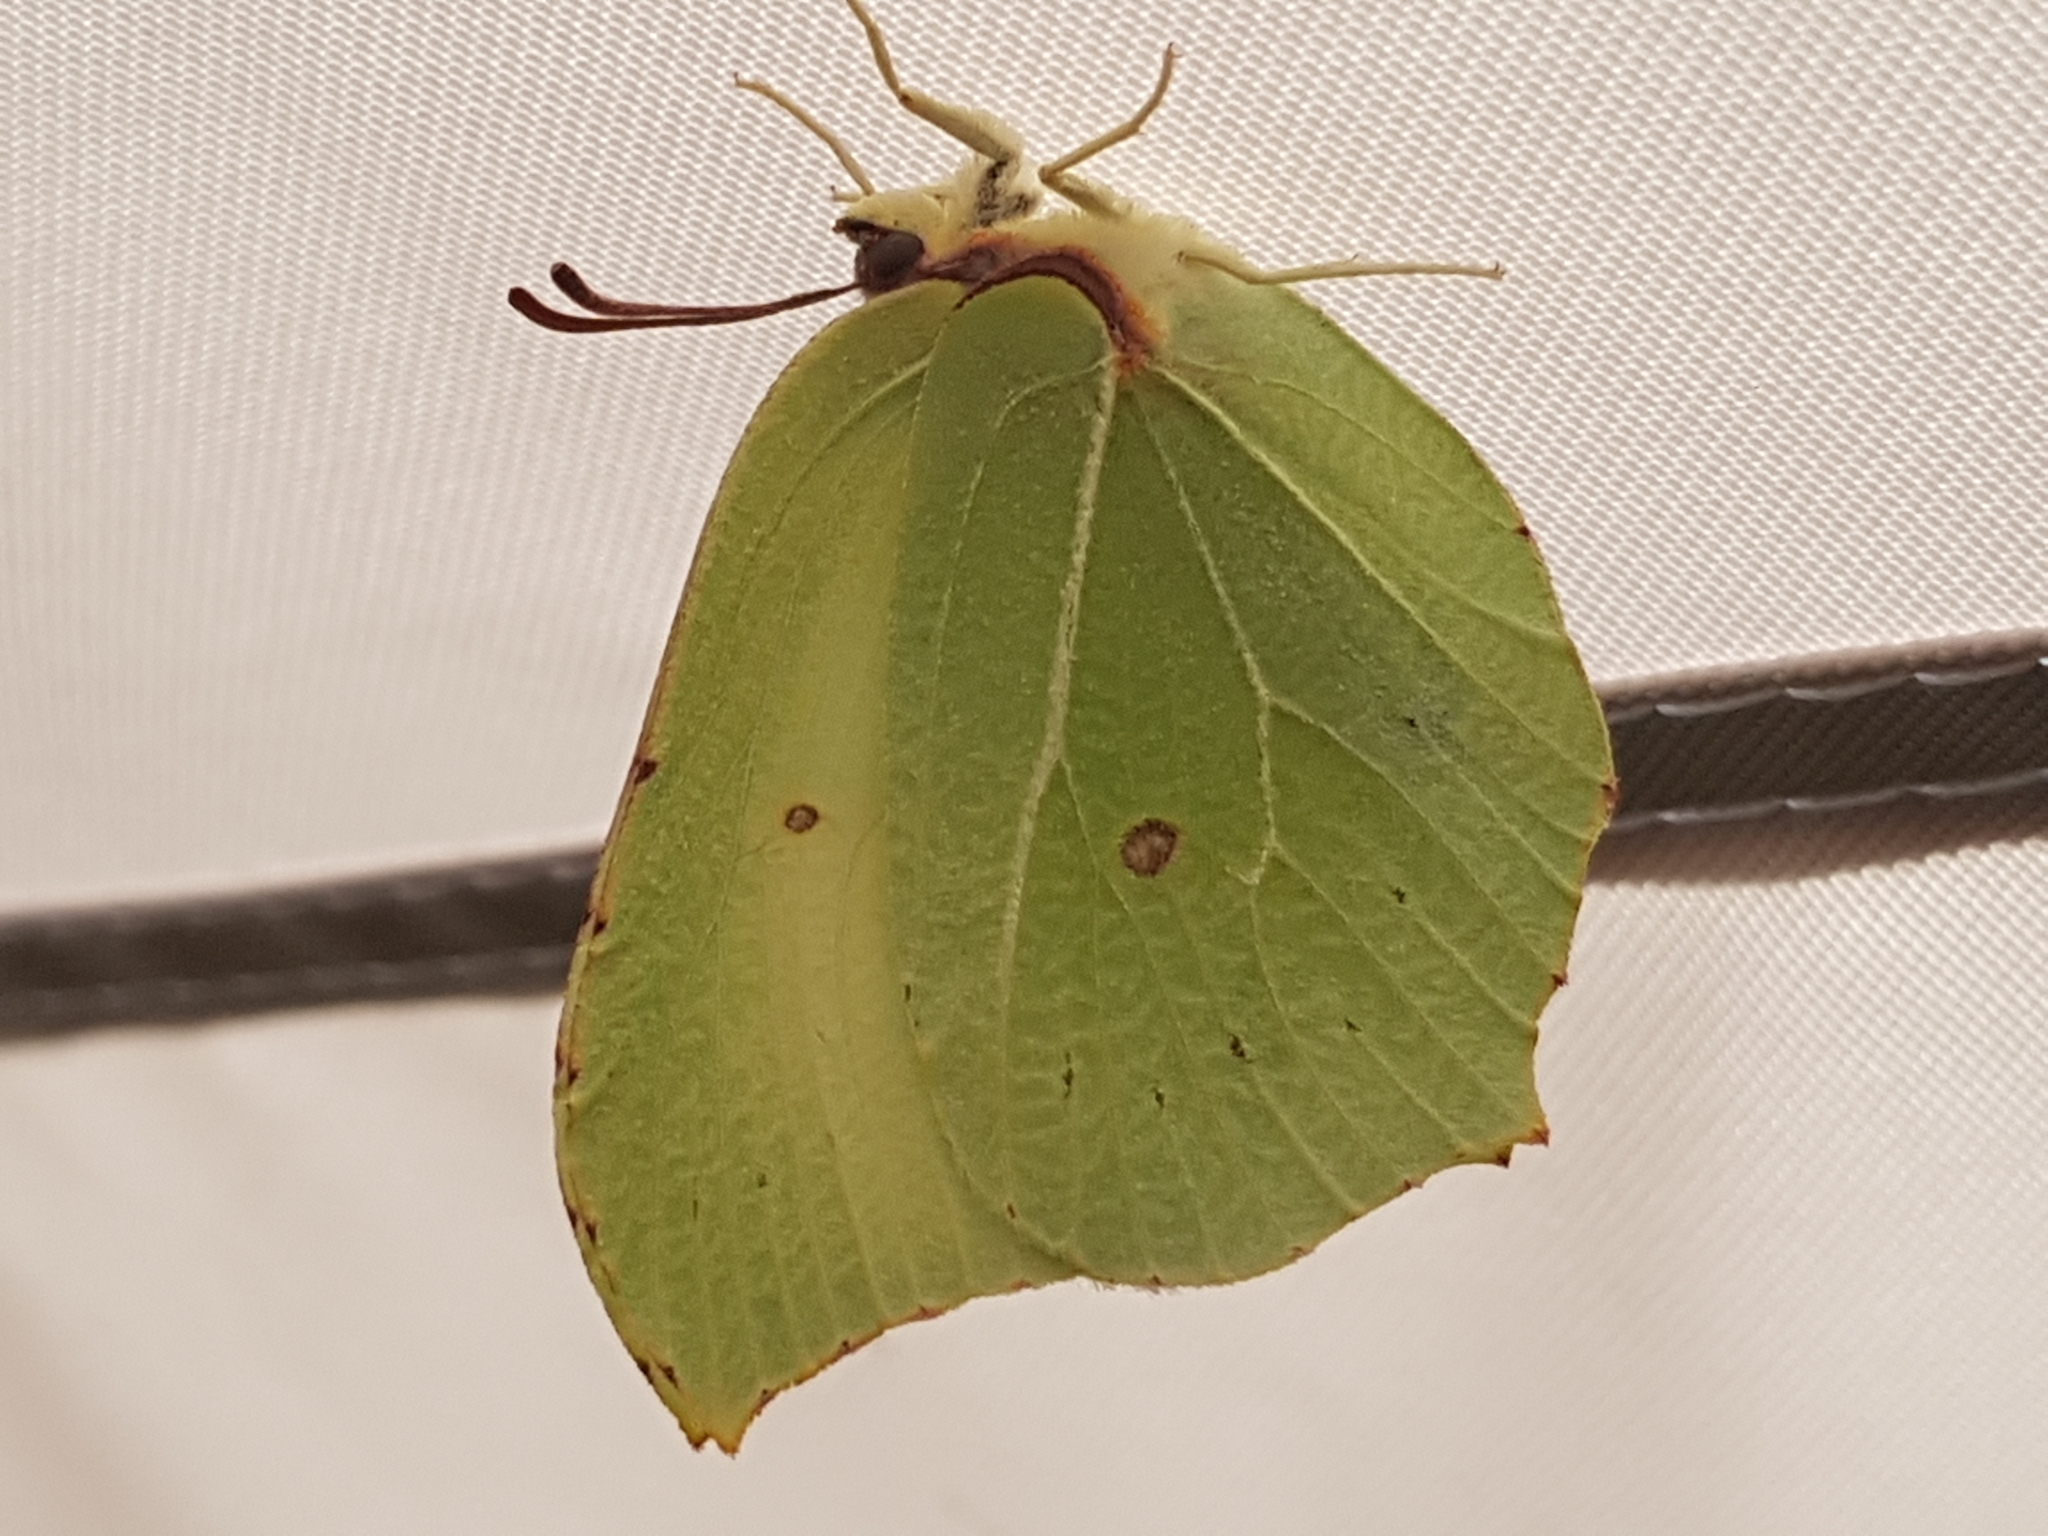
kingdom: Animalia
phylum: Arthropoda
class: Insecta
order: Lepidoptera
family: Pieridae
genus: Gonepteryx
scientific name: Gonepteryx rhamni
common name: Brimstone
